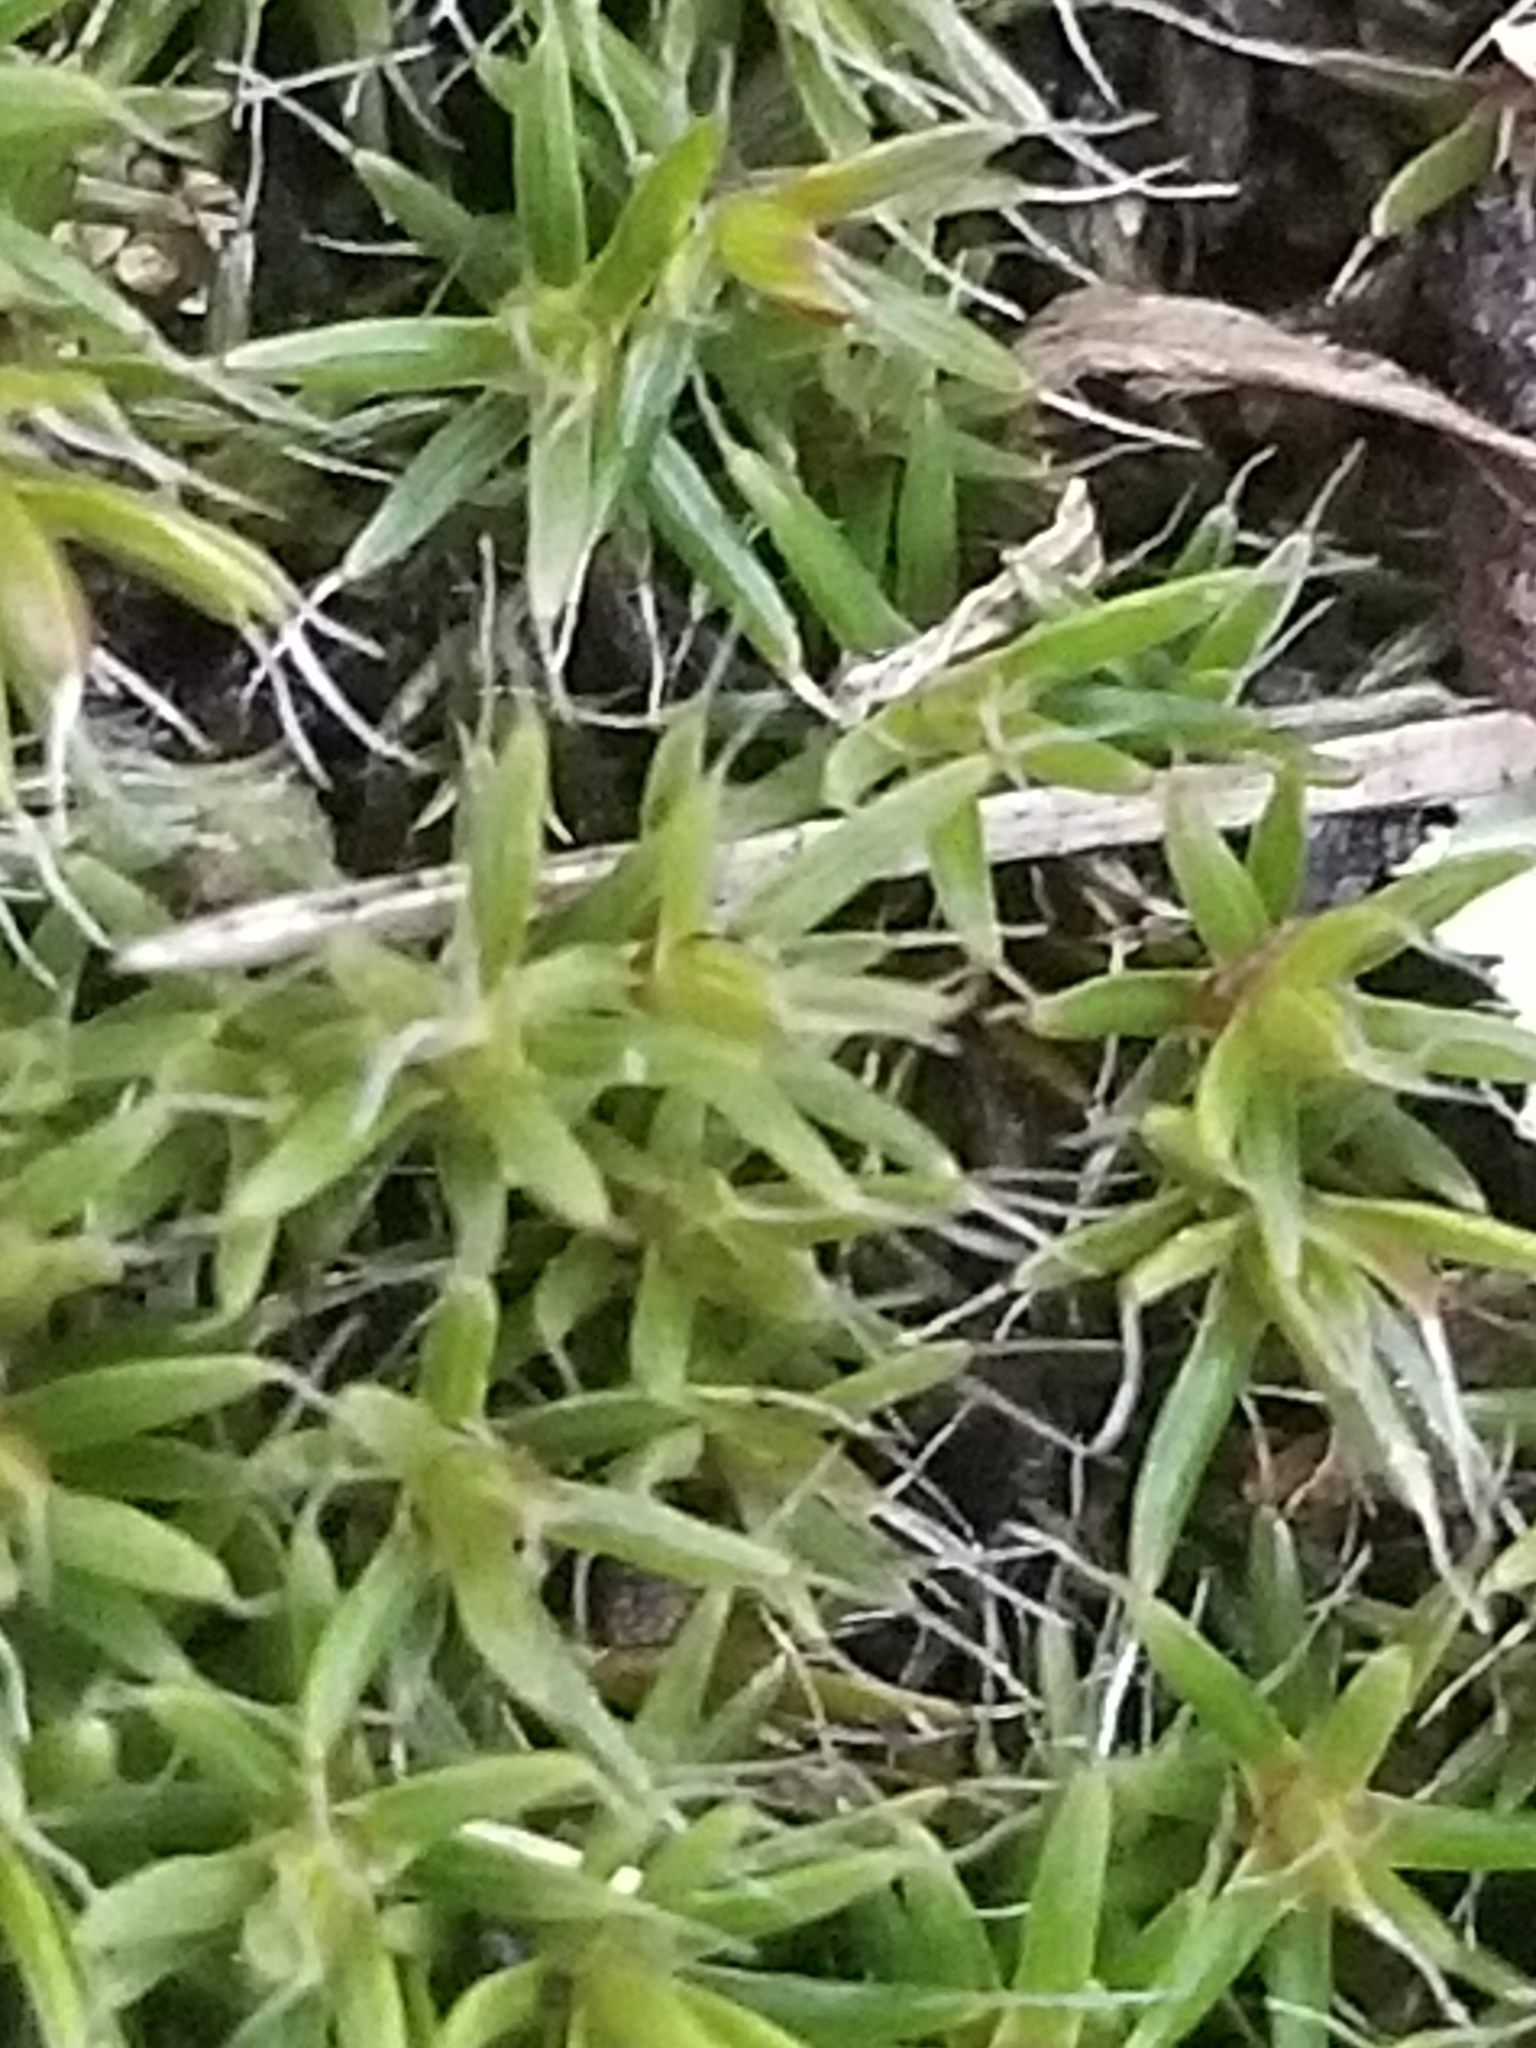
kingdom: Plantae
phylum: Bryophyta
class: Polytrichopsida
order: Polytrichales
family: Polytrichaceae
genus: Polytrichum
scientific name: Polytrichum piliferum
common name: Bristly haircap
